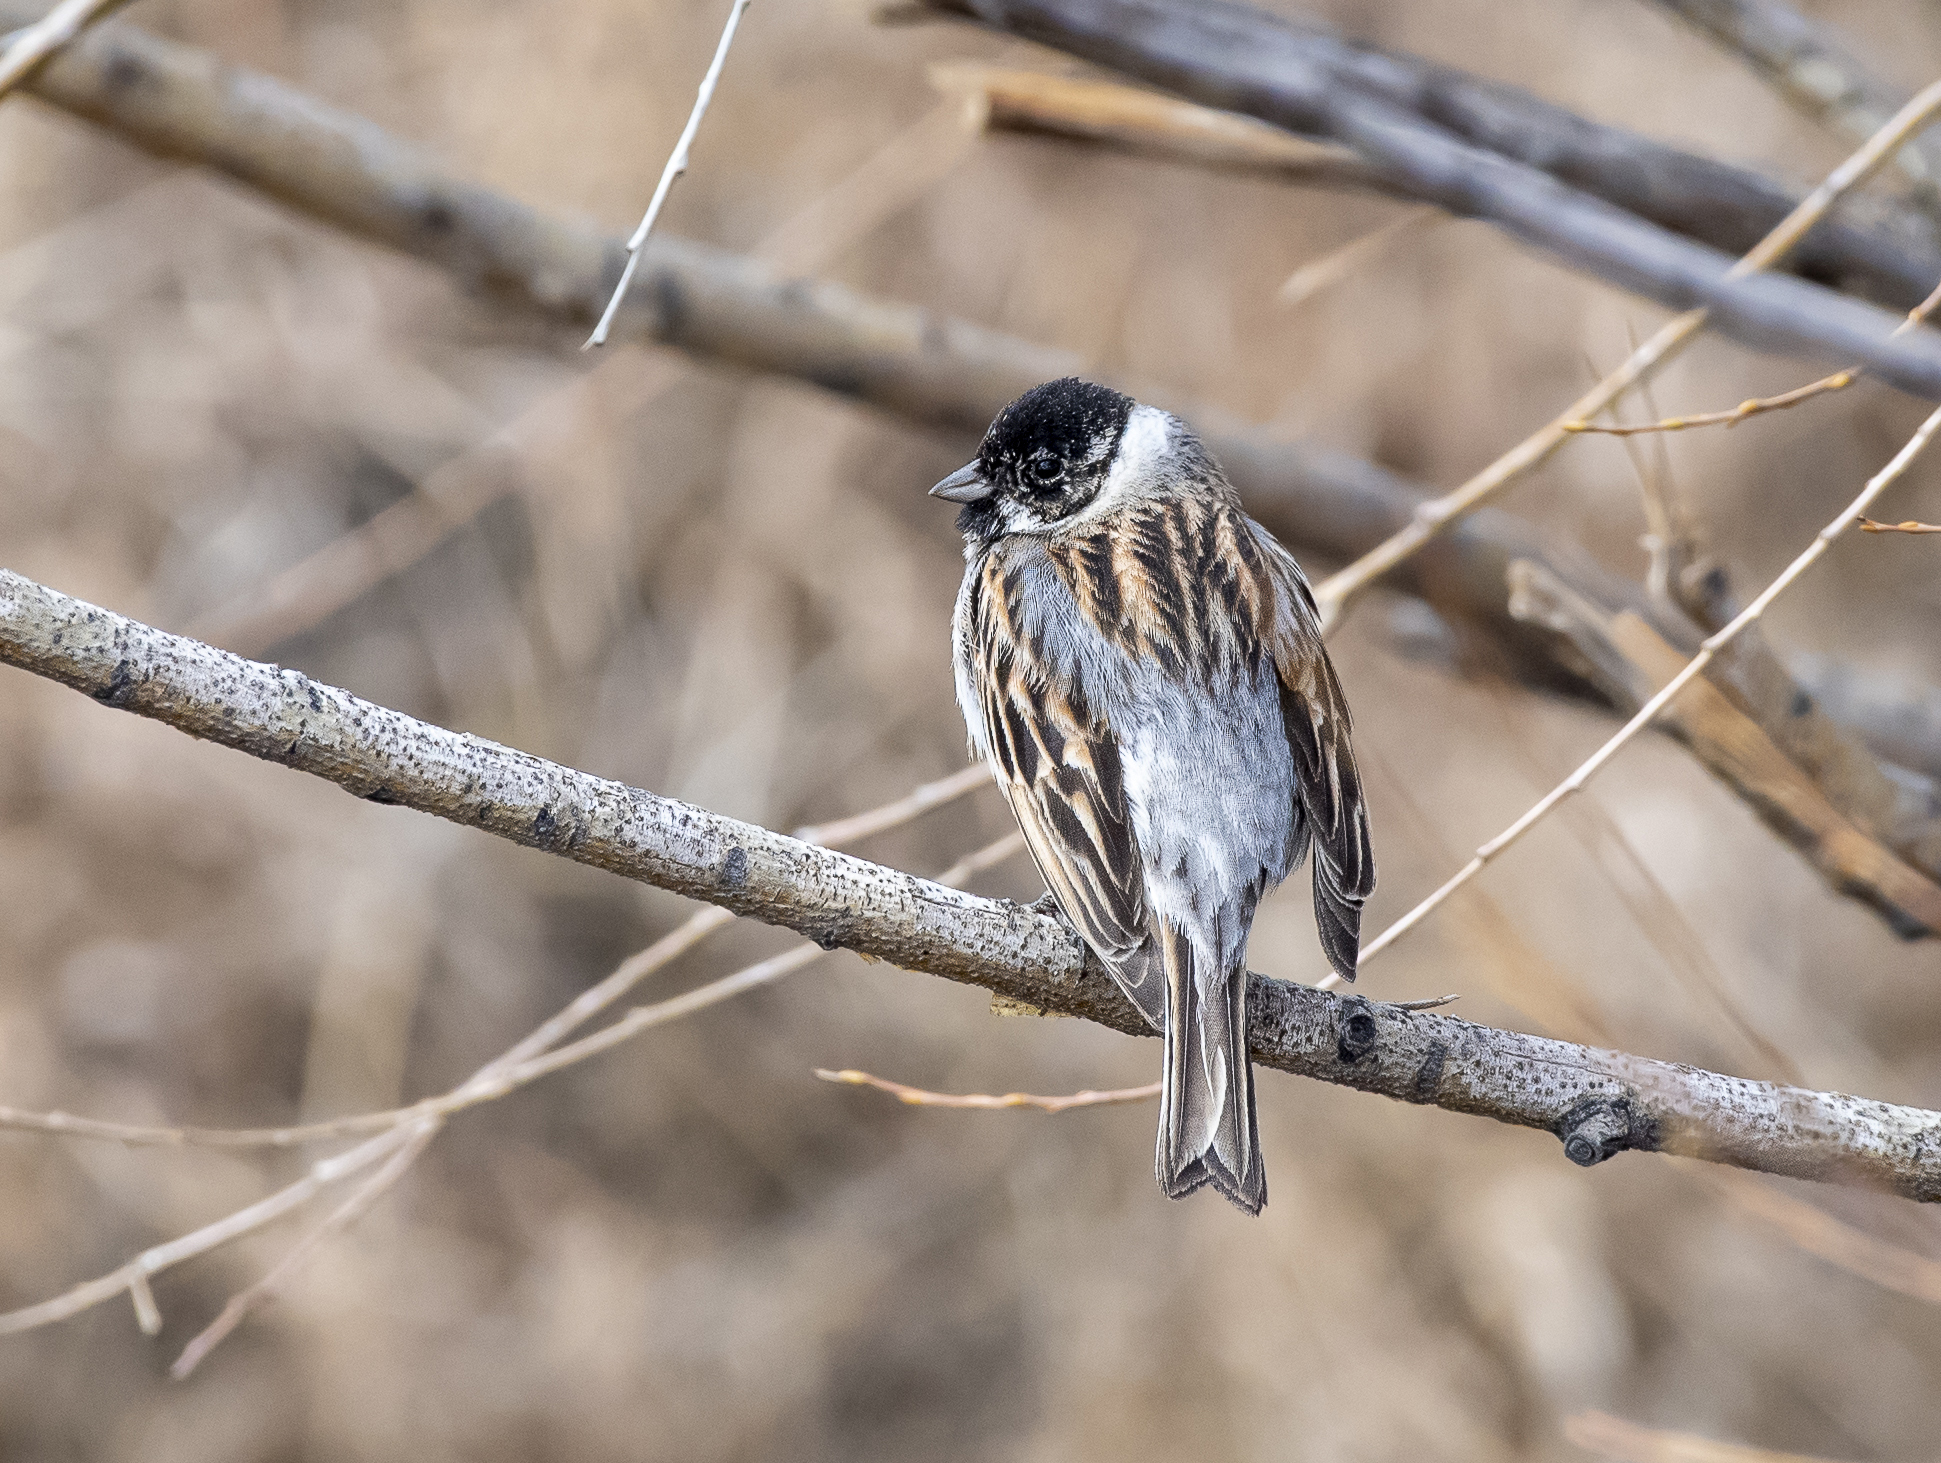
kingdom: Animalia
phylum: Chordata
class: Aves
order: Passeriformes
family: Emberizidae
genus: Emberiza
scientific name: Emberiza schoeniclus
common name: Reed bunting
